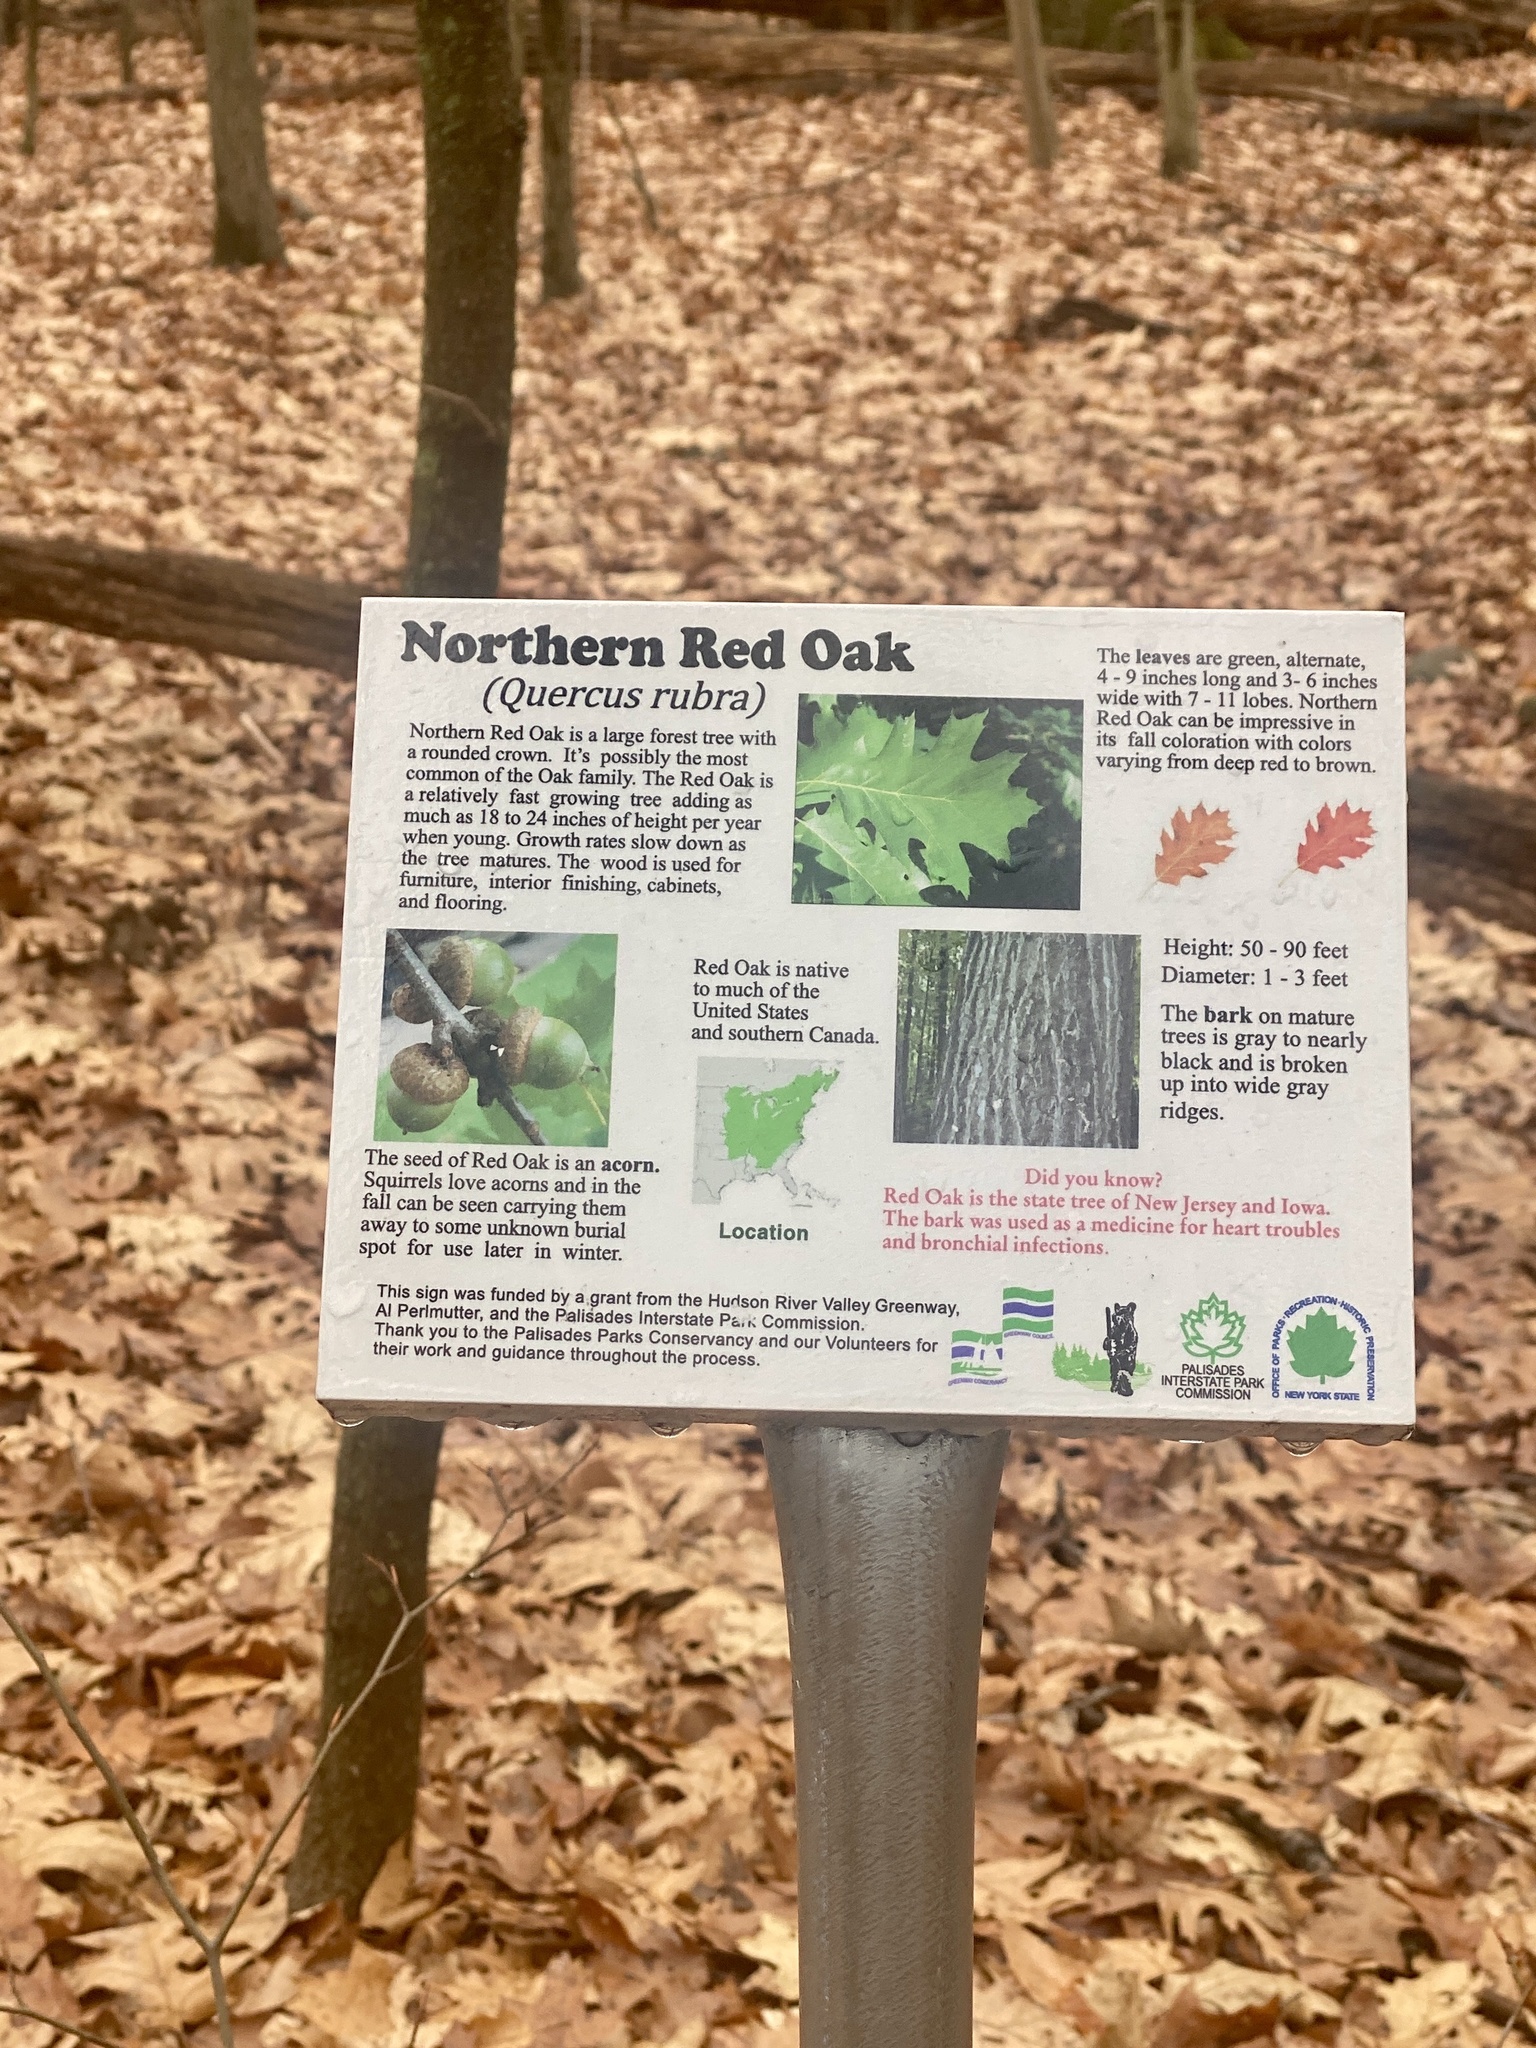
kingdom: Plantae
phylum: Tracheophyta
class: Magnoliopsida
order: Fagales
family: Fagaceae
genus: Quercus
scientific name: Quercus rubra
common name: Red oak
